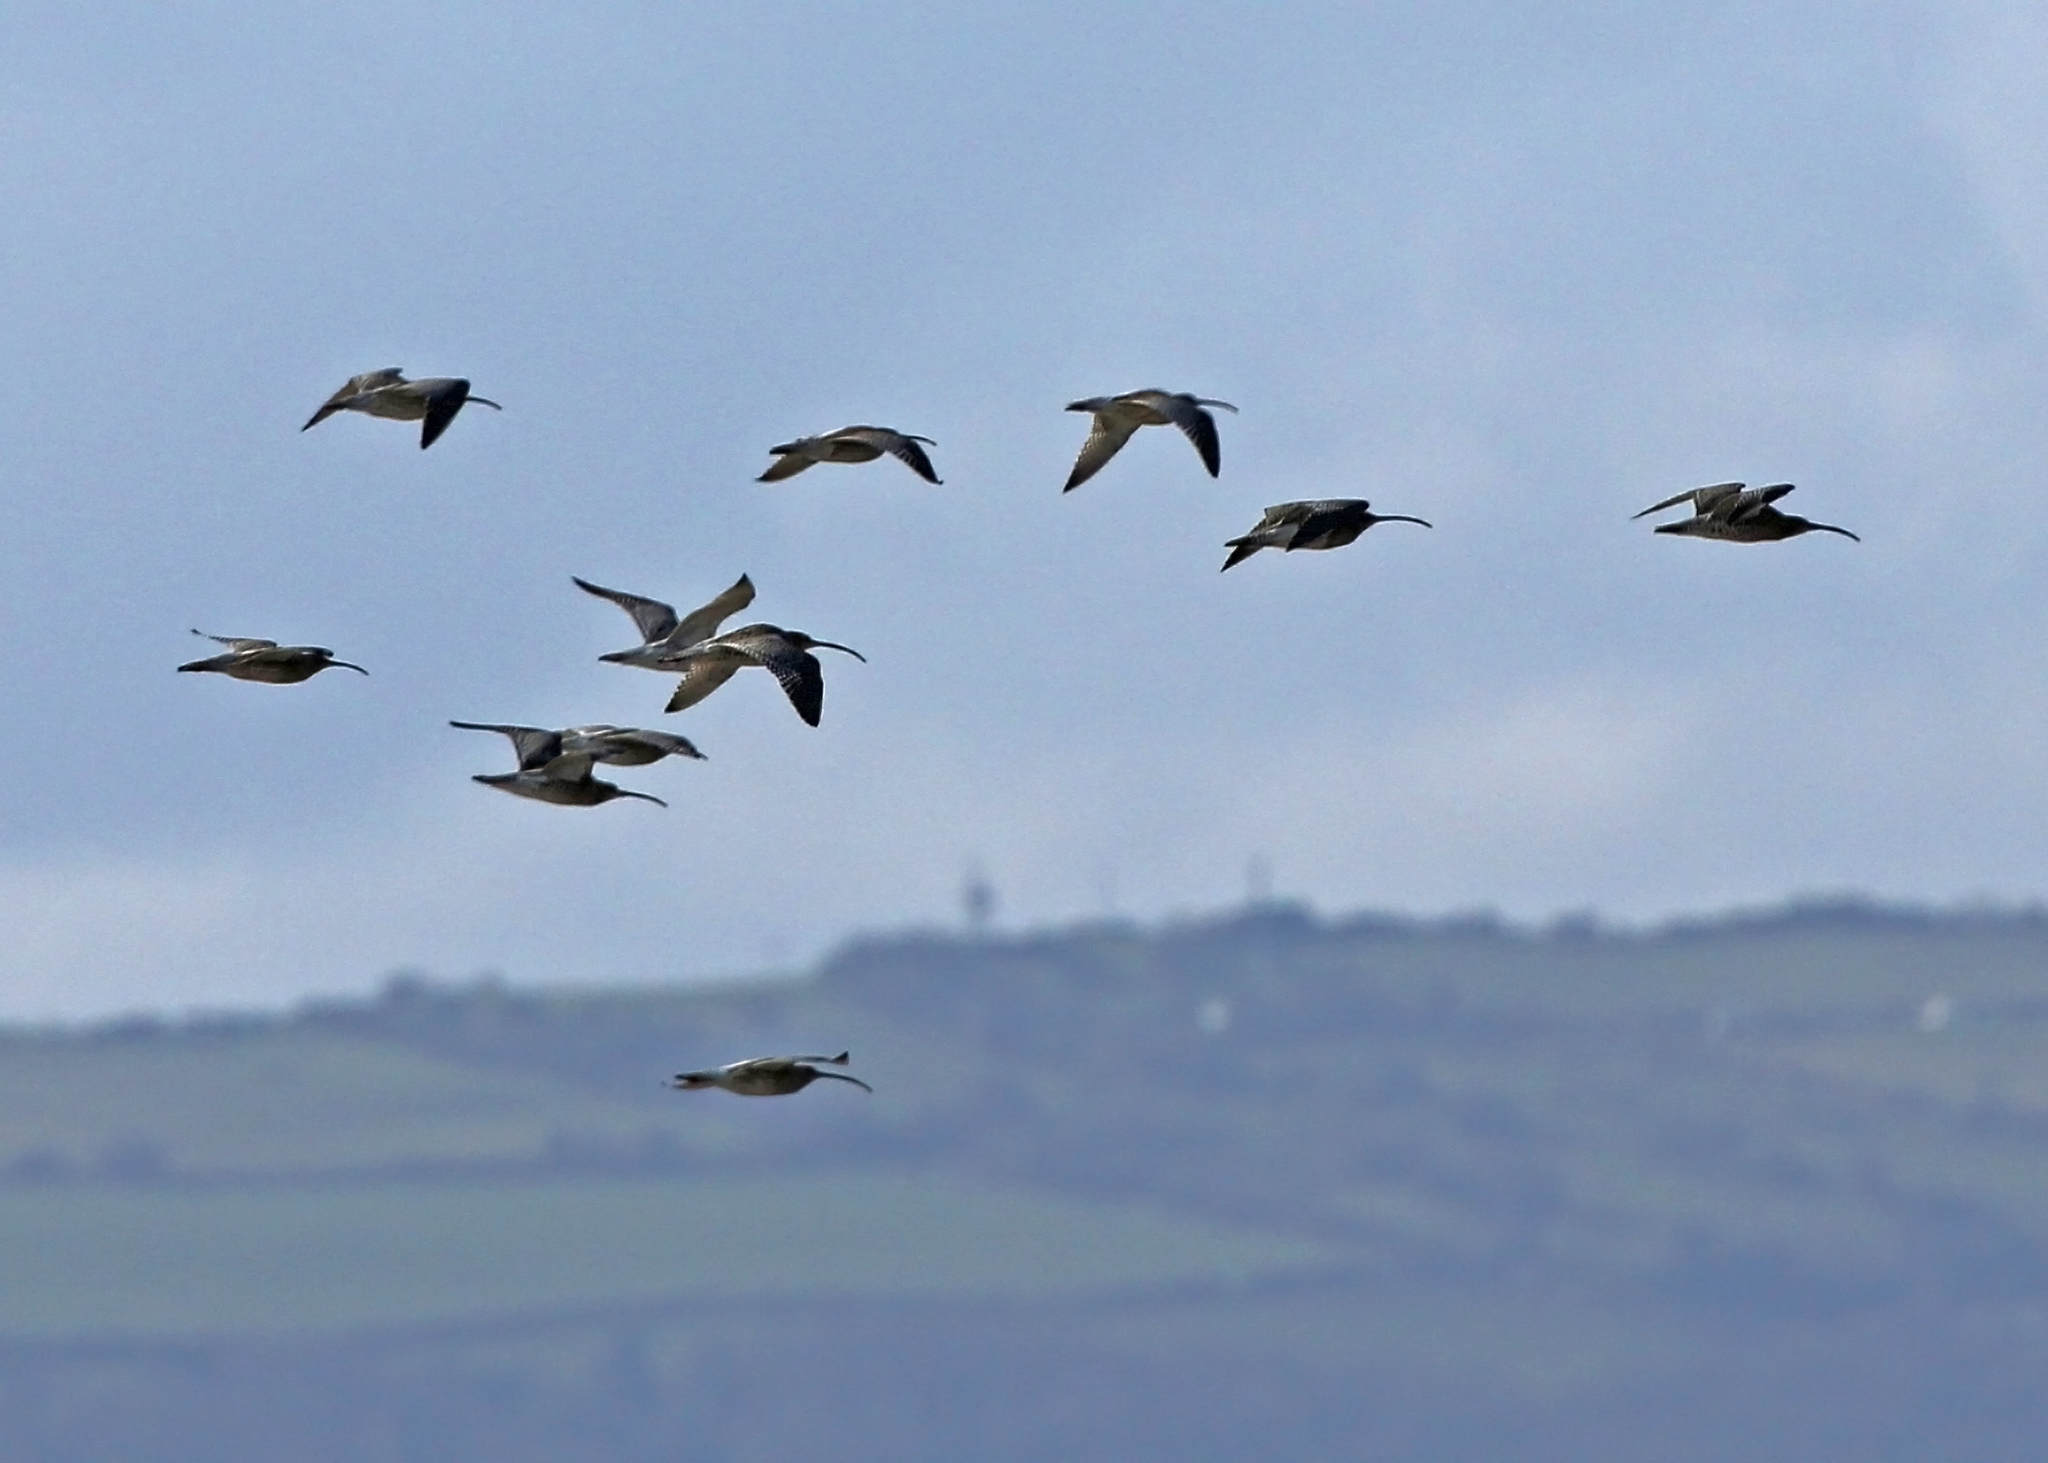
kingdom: Animalia
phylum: Chordata
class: Aves
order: Charadriiformes
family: Scolopacidae
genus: Numenius
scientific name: Numenius arquata
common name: Eurasian curlew
